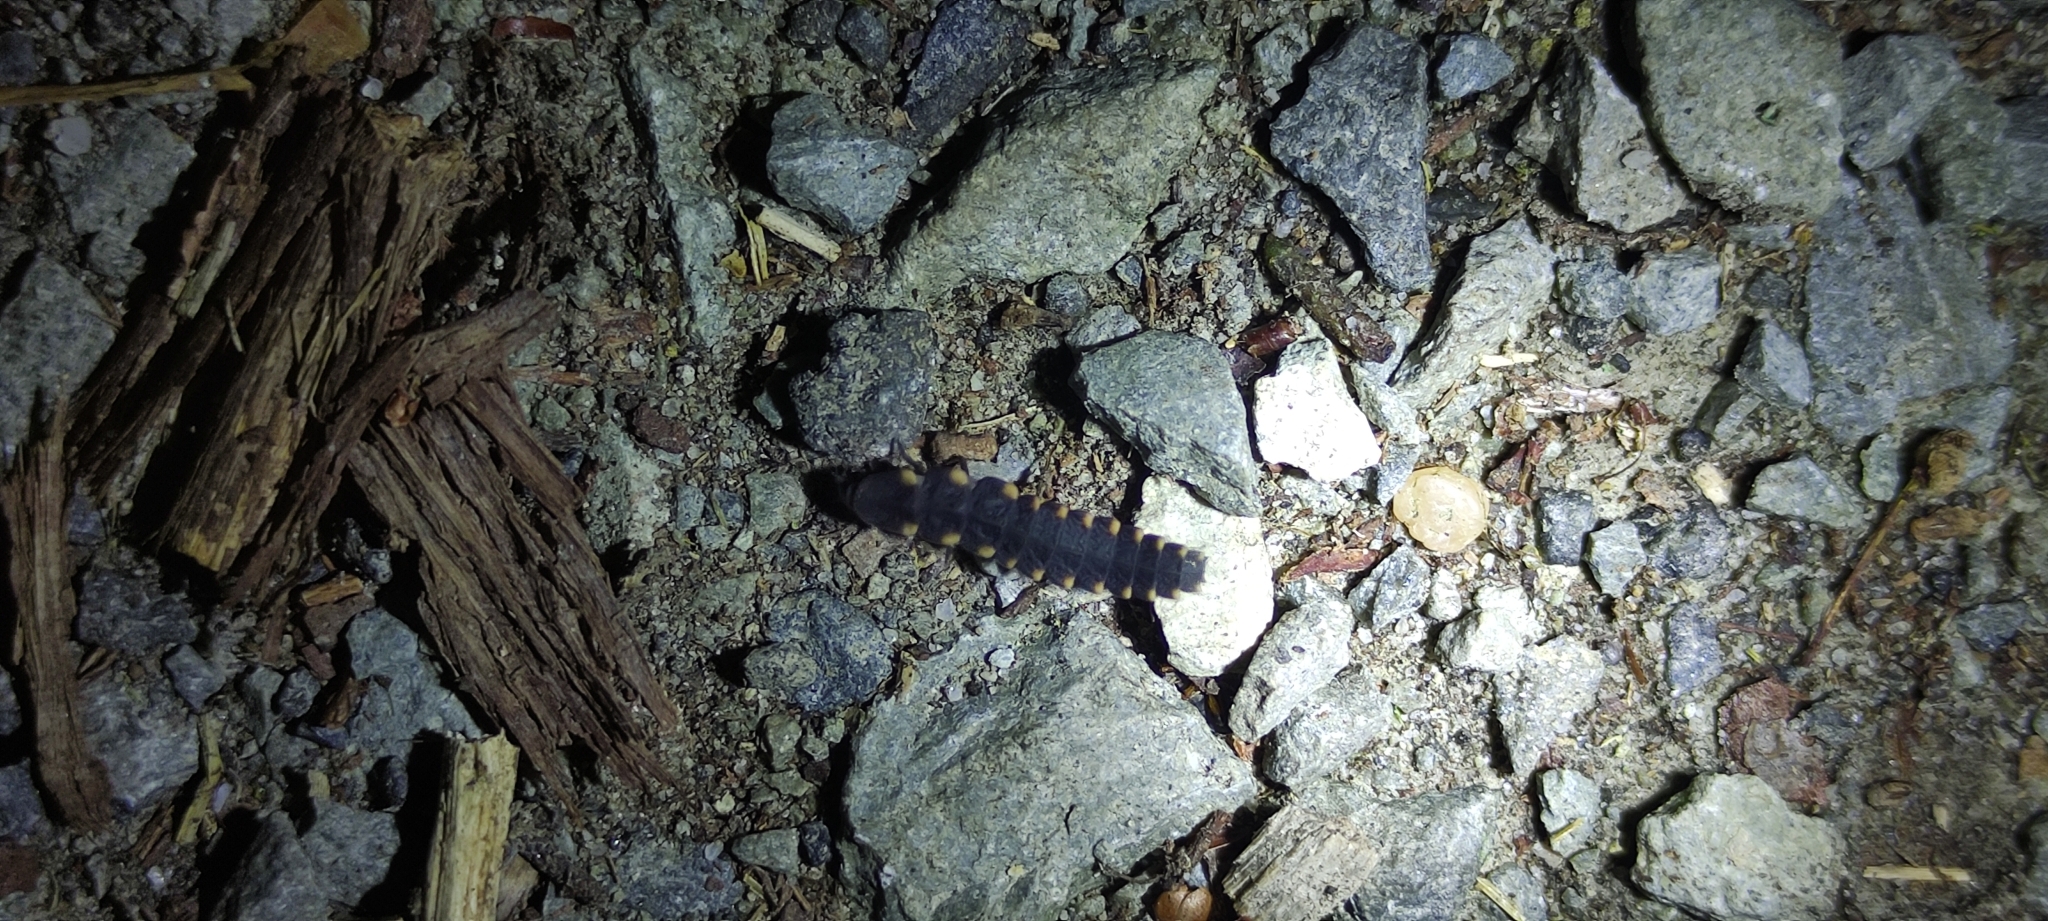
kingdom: Animalia
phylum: Arthropoda
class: Insecta
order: Coleoptera
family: Lampyridae
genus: Lampyris
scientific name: Lampyris noctiluca
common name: Glow-worm
